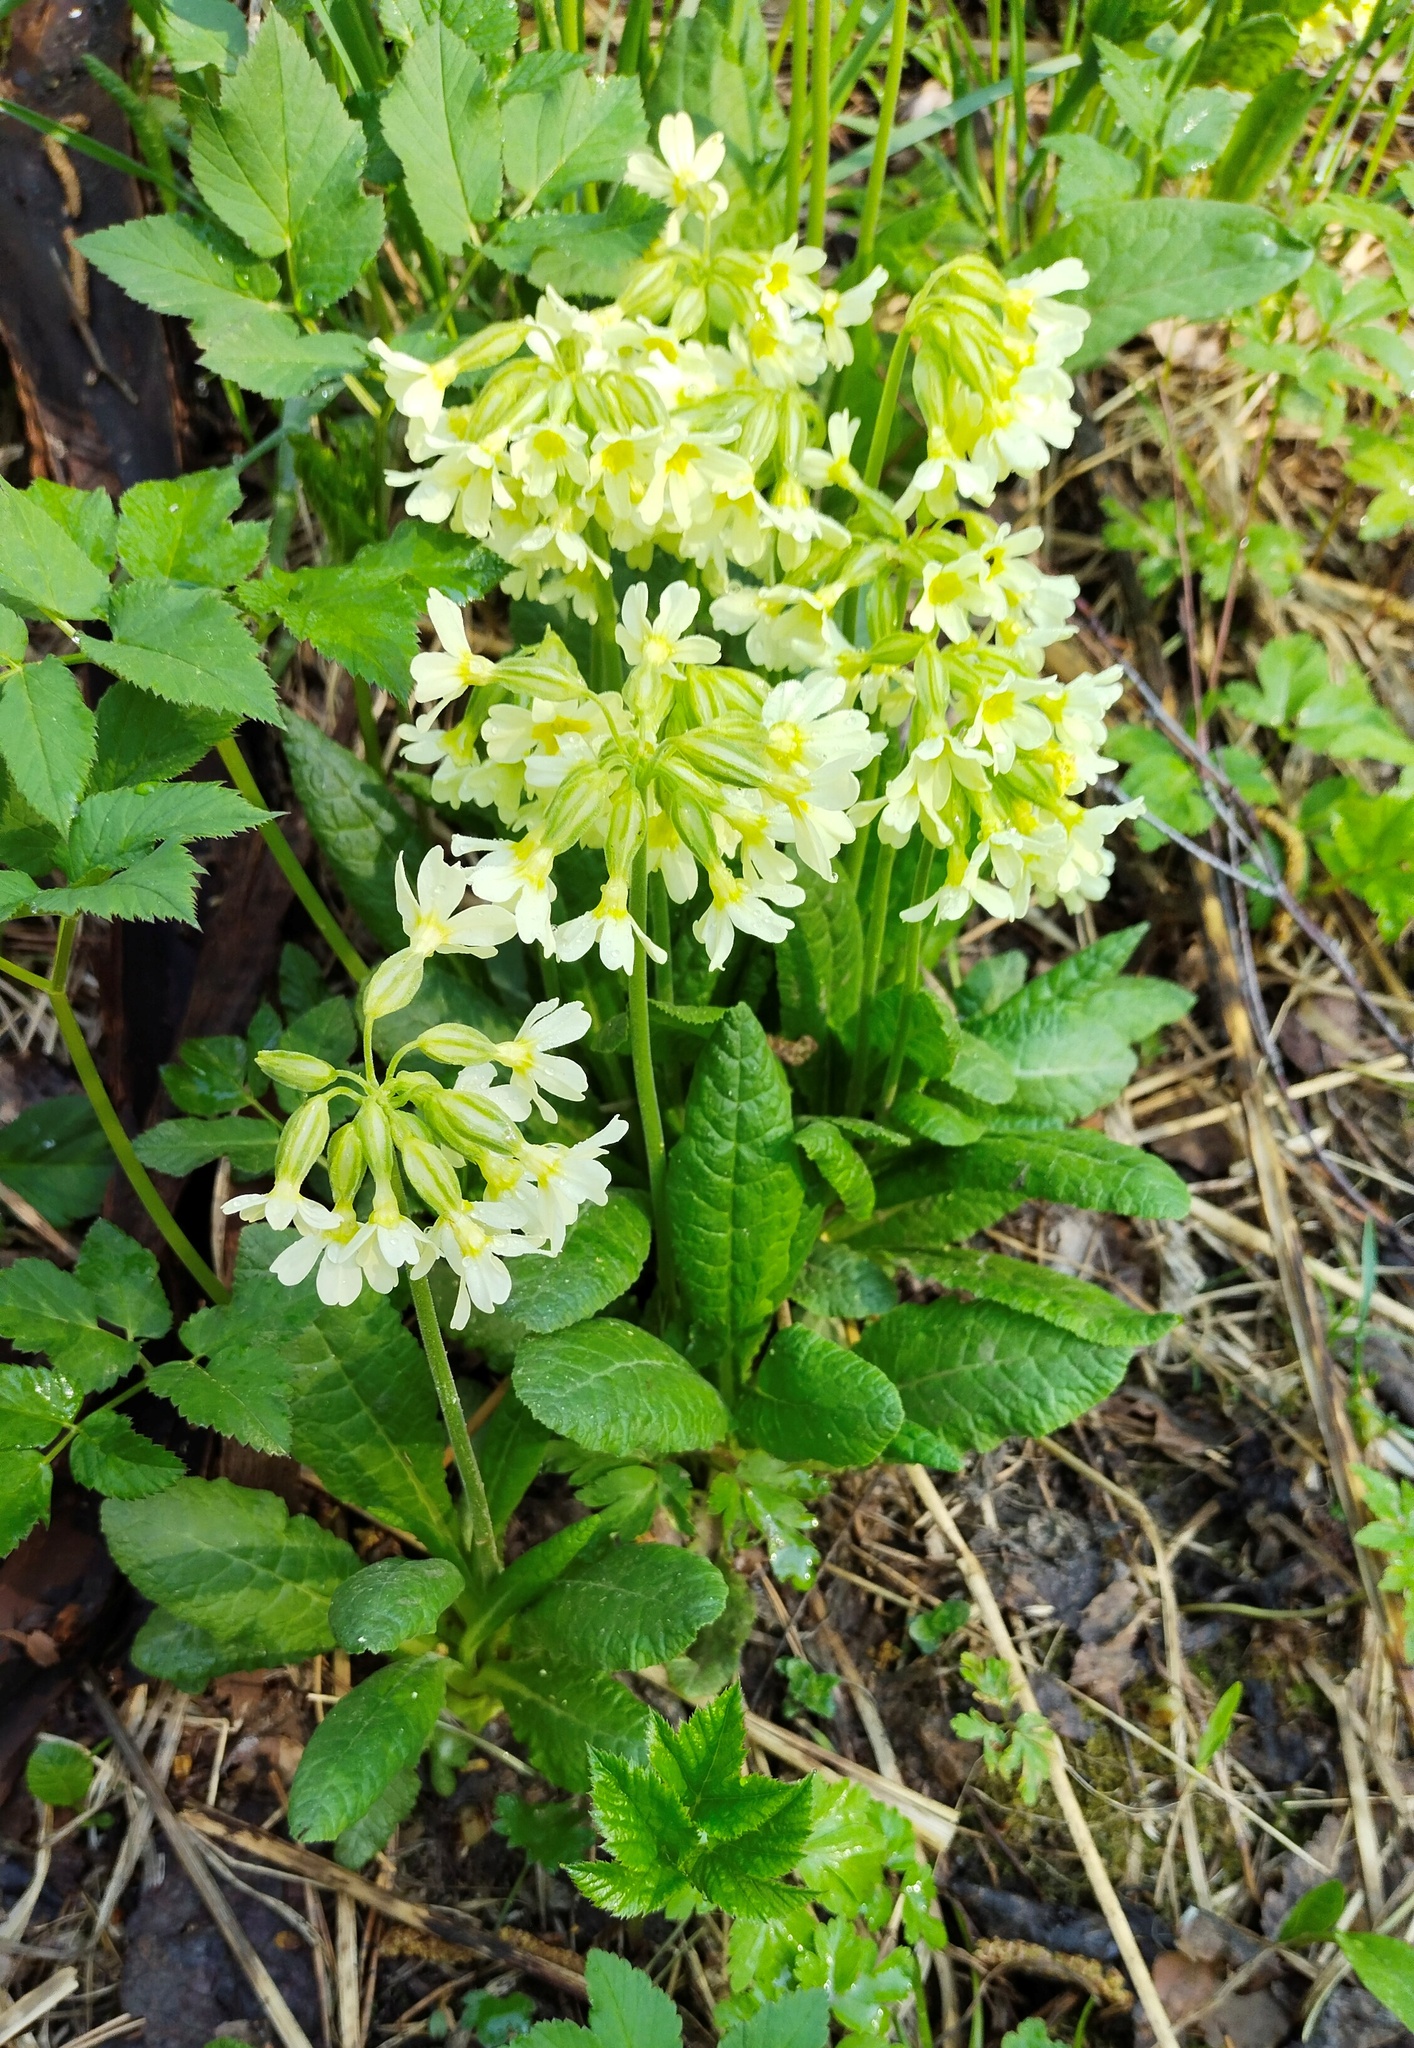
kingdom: Plantae
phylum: Tracheophyta
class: Magnoliopsida
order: Ericales
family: Primulaceae
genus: Primula
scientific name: Primula elatior
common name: Oxlip
